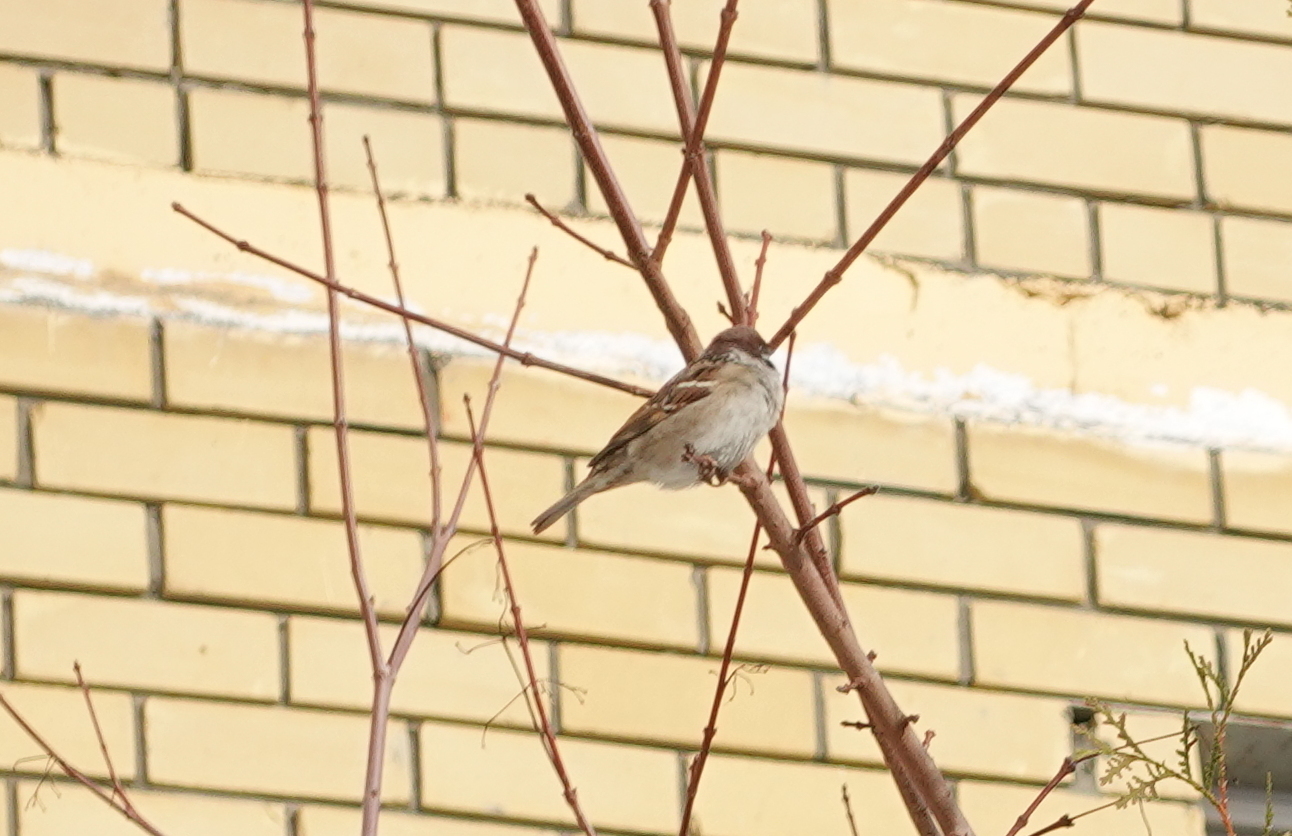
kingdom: Animalia
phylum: Chordata
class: Aves
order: Passeriformes
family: Passeridae
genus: Passer
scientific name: Passer montanus
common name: Eurasian tree sparrow
